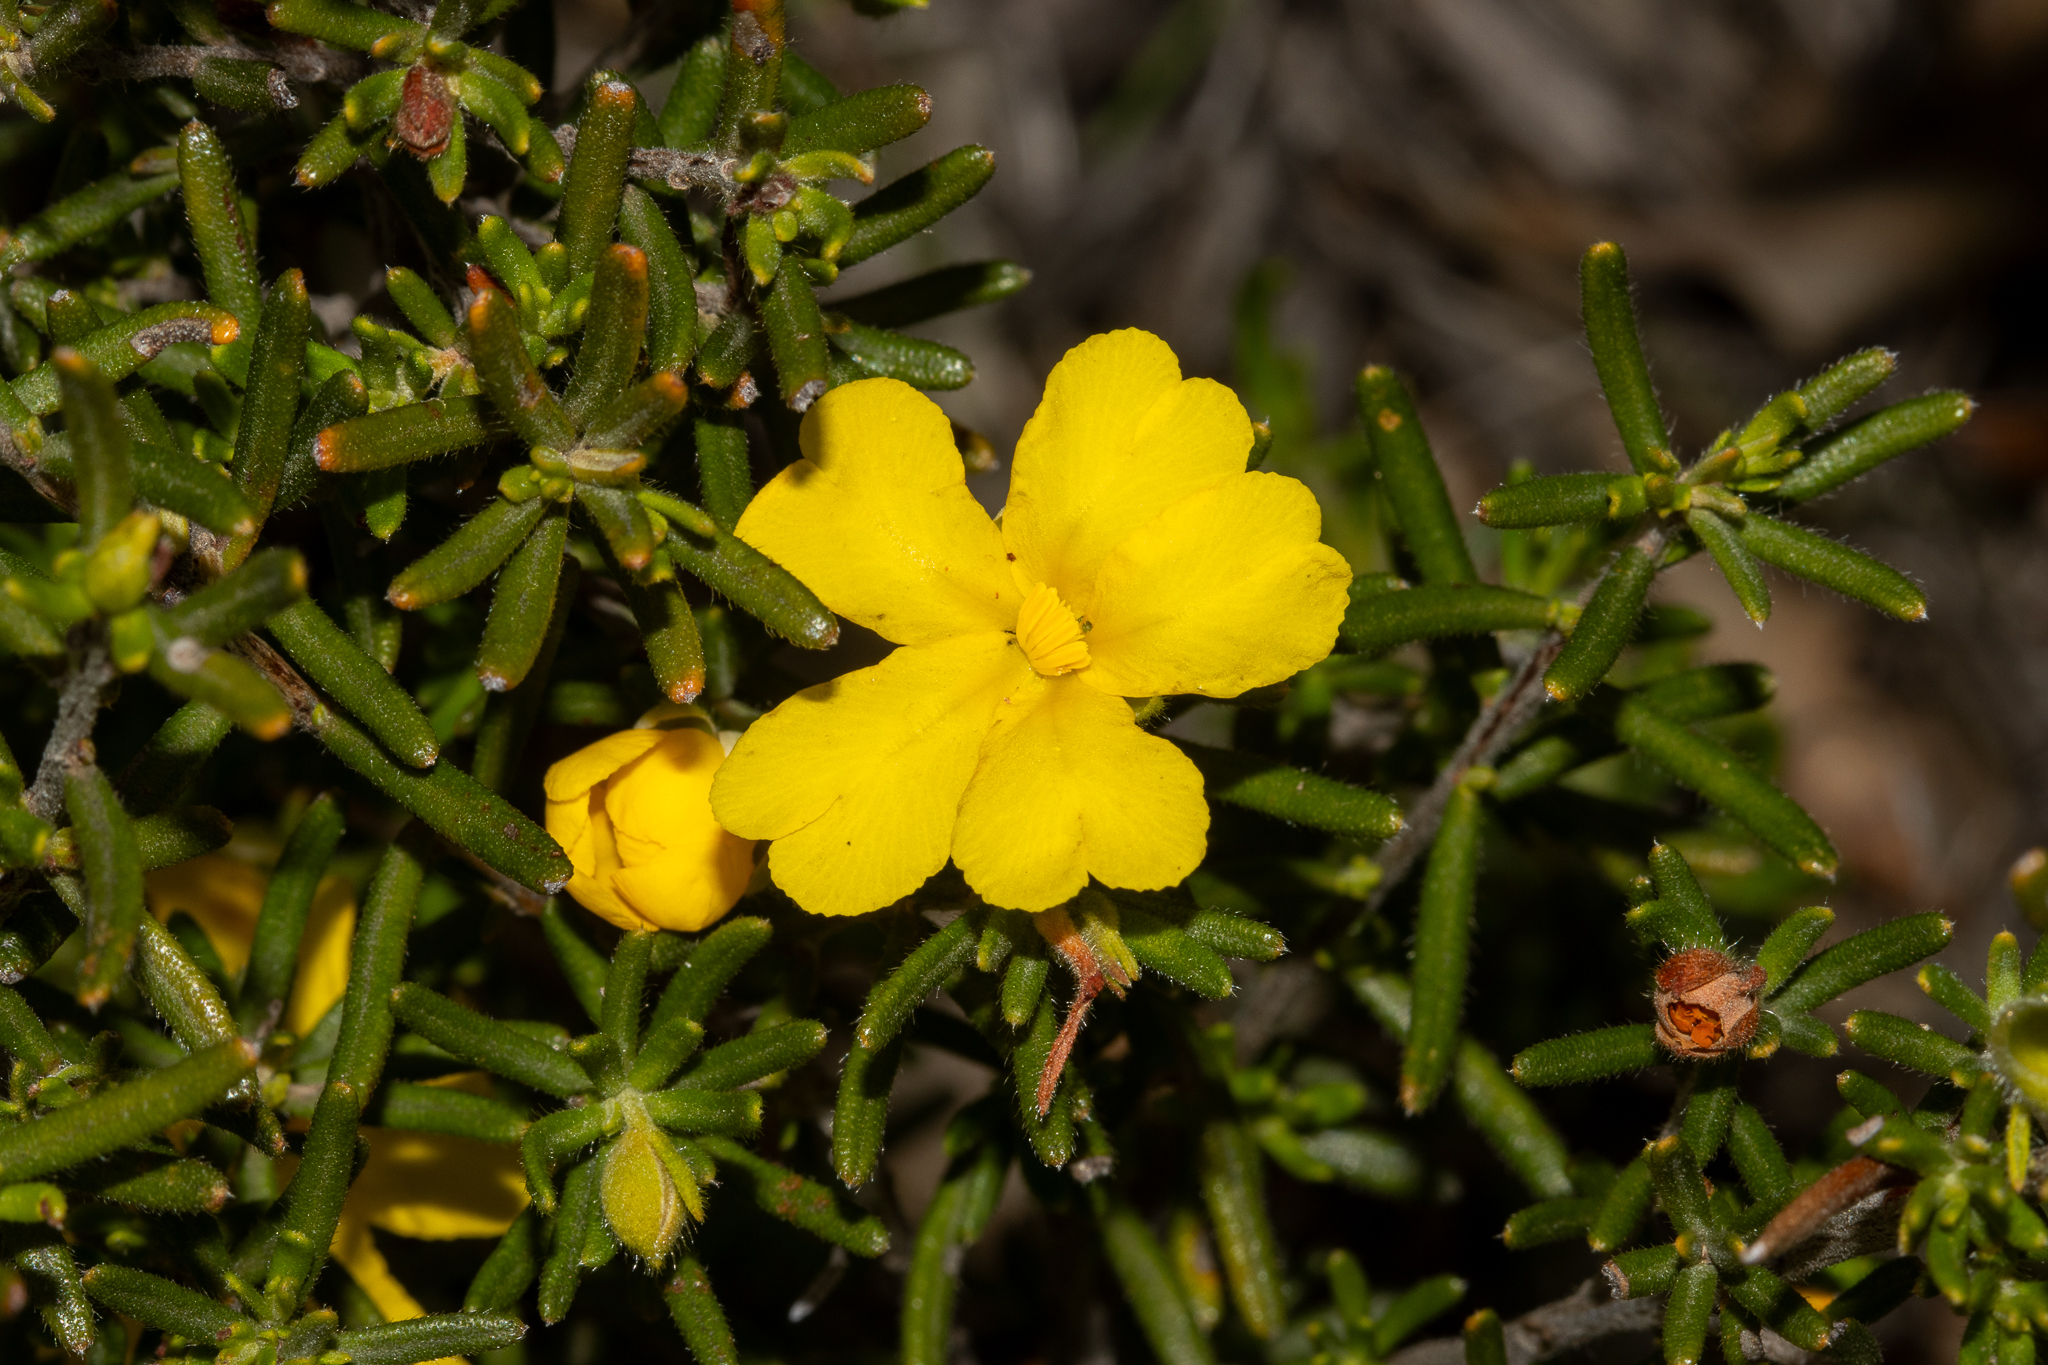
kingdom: Plantae
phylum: Tracheophyta
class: Magnoliopsida
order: Dilleniales
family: Dilleniaceae
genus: Hibbertia
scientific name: Hibbertia hypericoides
